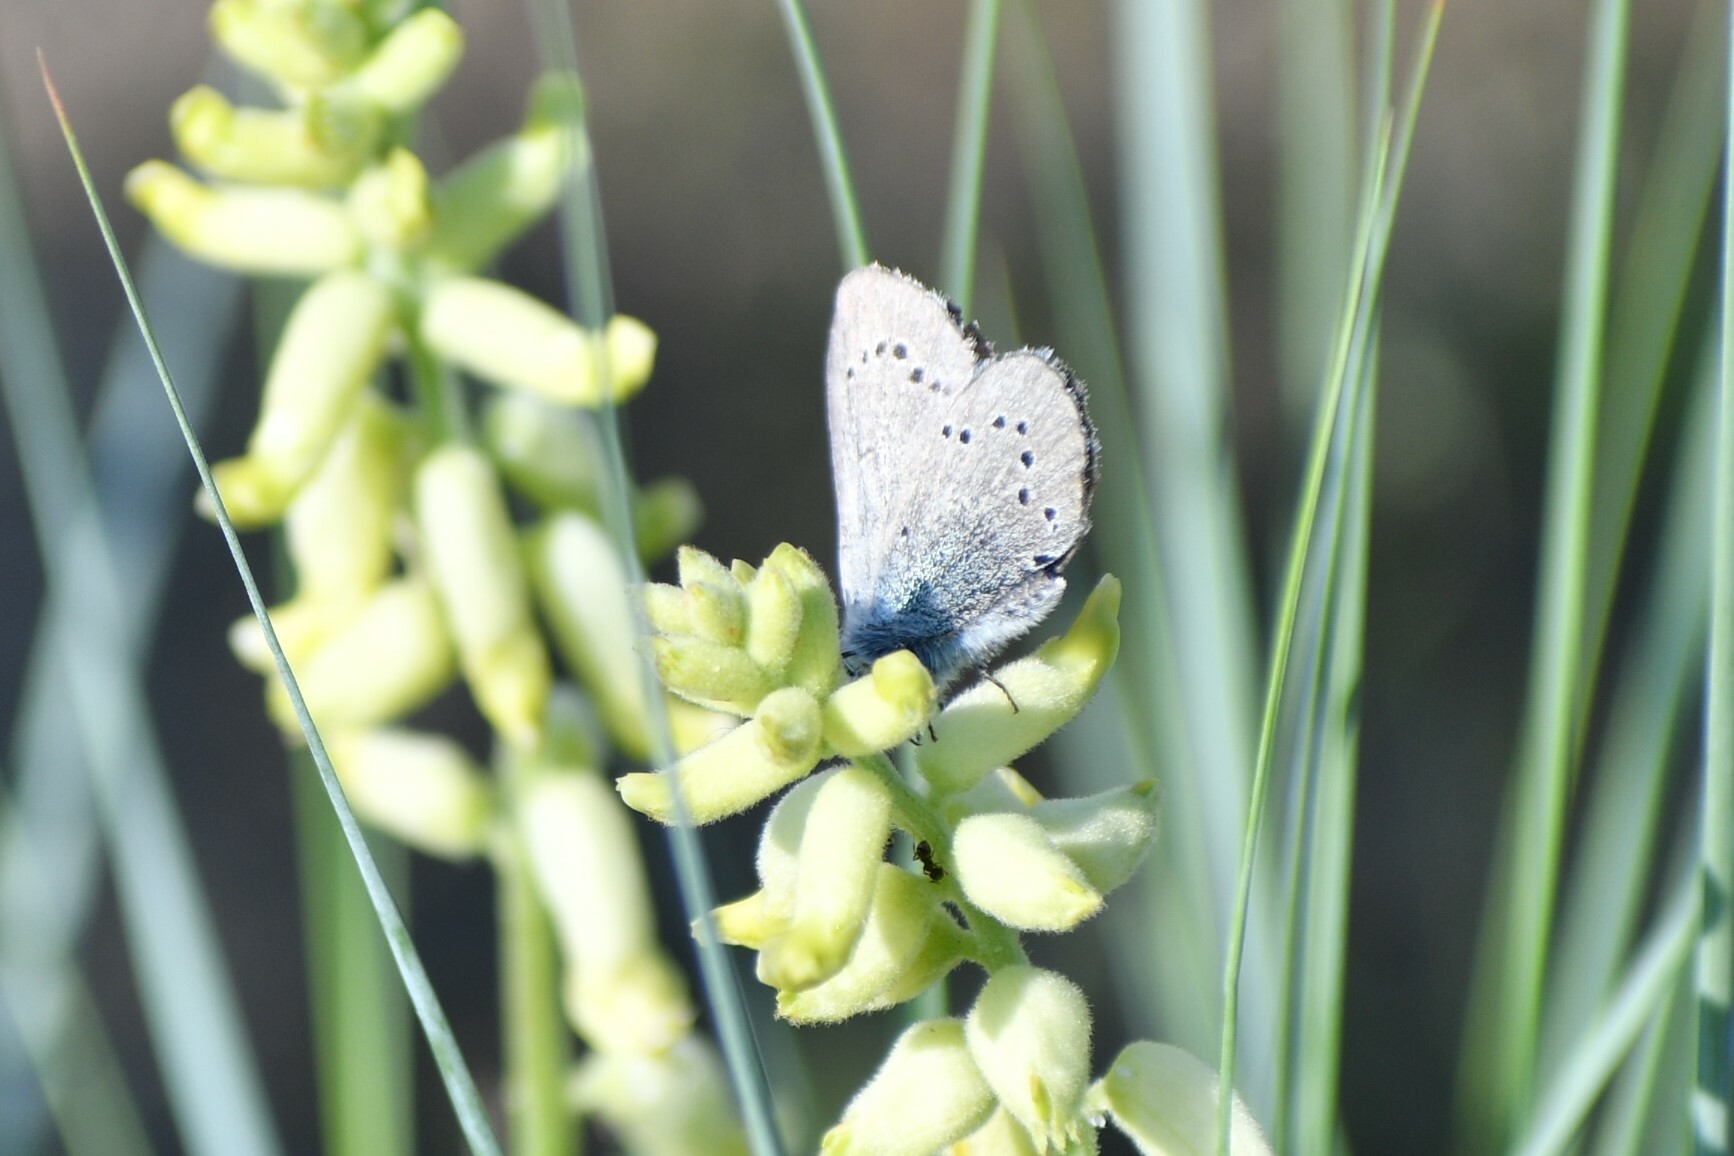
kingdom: Animalia
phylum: Arthropoda
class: Insecta
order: Lepidoptera
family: Lycaenidae
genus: Glaucopsyche
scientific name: Glaucopsyche lygdamus
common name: Silvery blue
